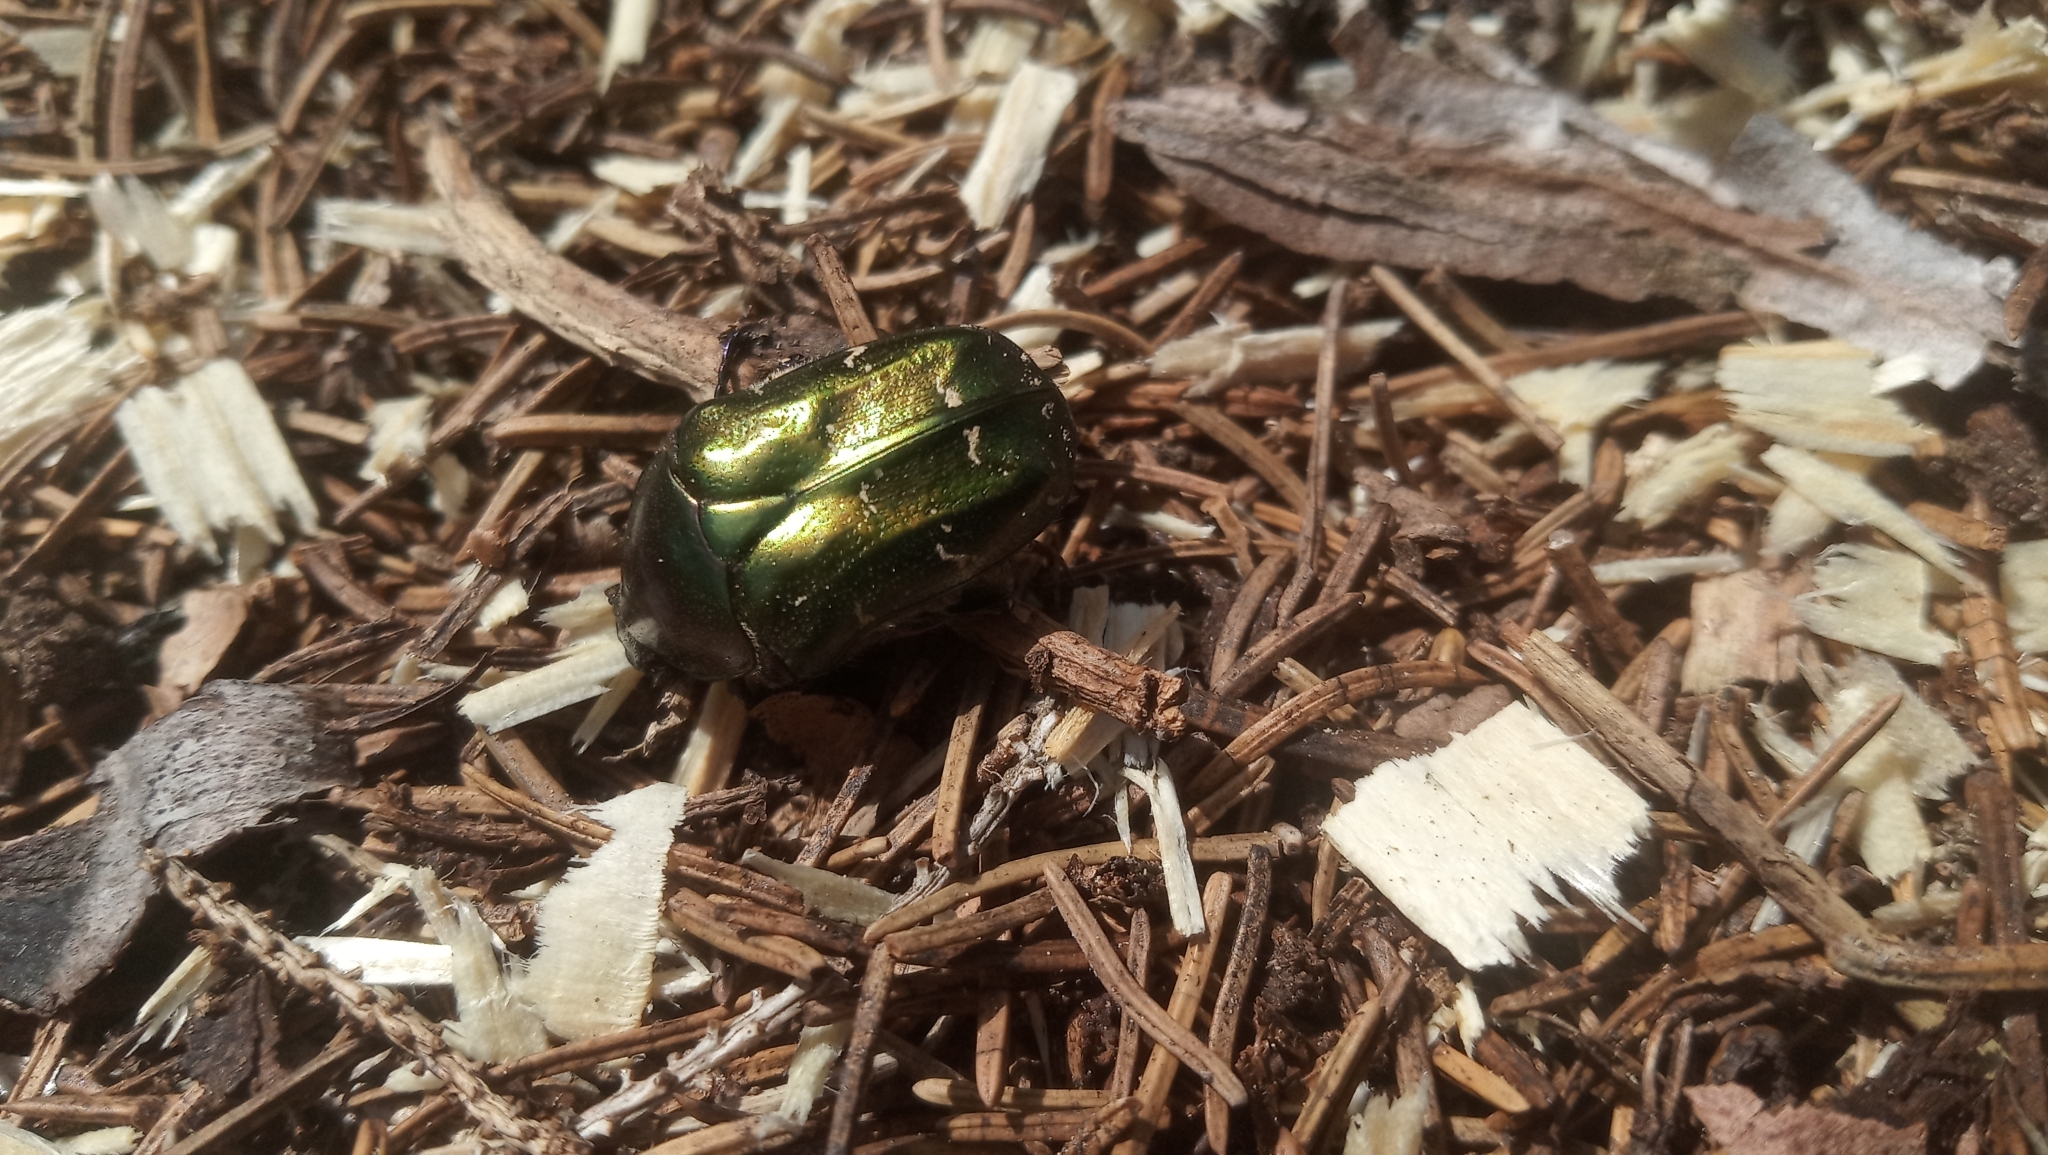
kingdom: Animalia
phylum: Arthropoda
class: Insecta
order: Coleoptera
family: Scarabaeidae
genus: Protaetia
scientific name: Protaetia cuprea
